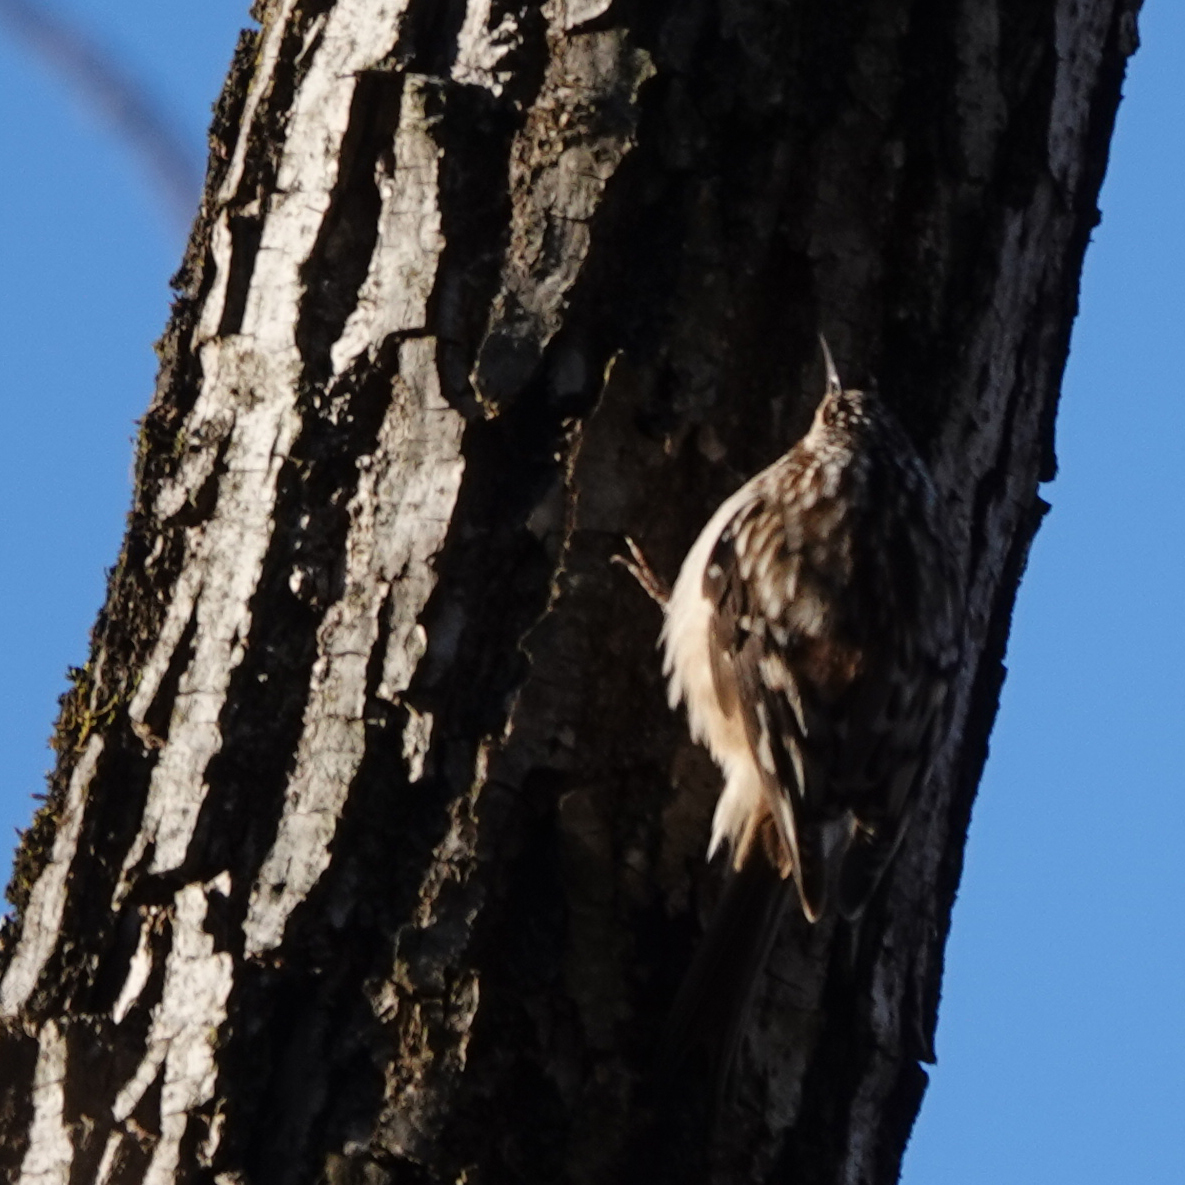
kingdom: Animalia
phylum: Chordata
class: Aves
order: Passeriformes
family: Certhiidae
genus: Certhia
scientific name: Certhia americana
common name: Brown creeper
